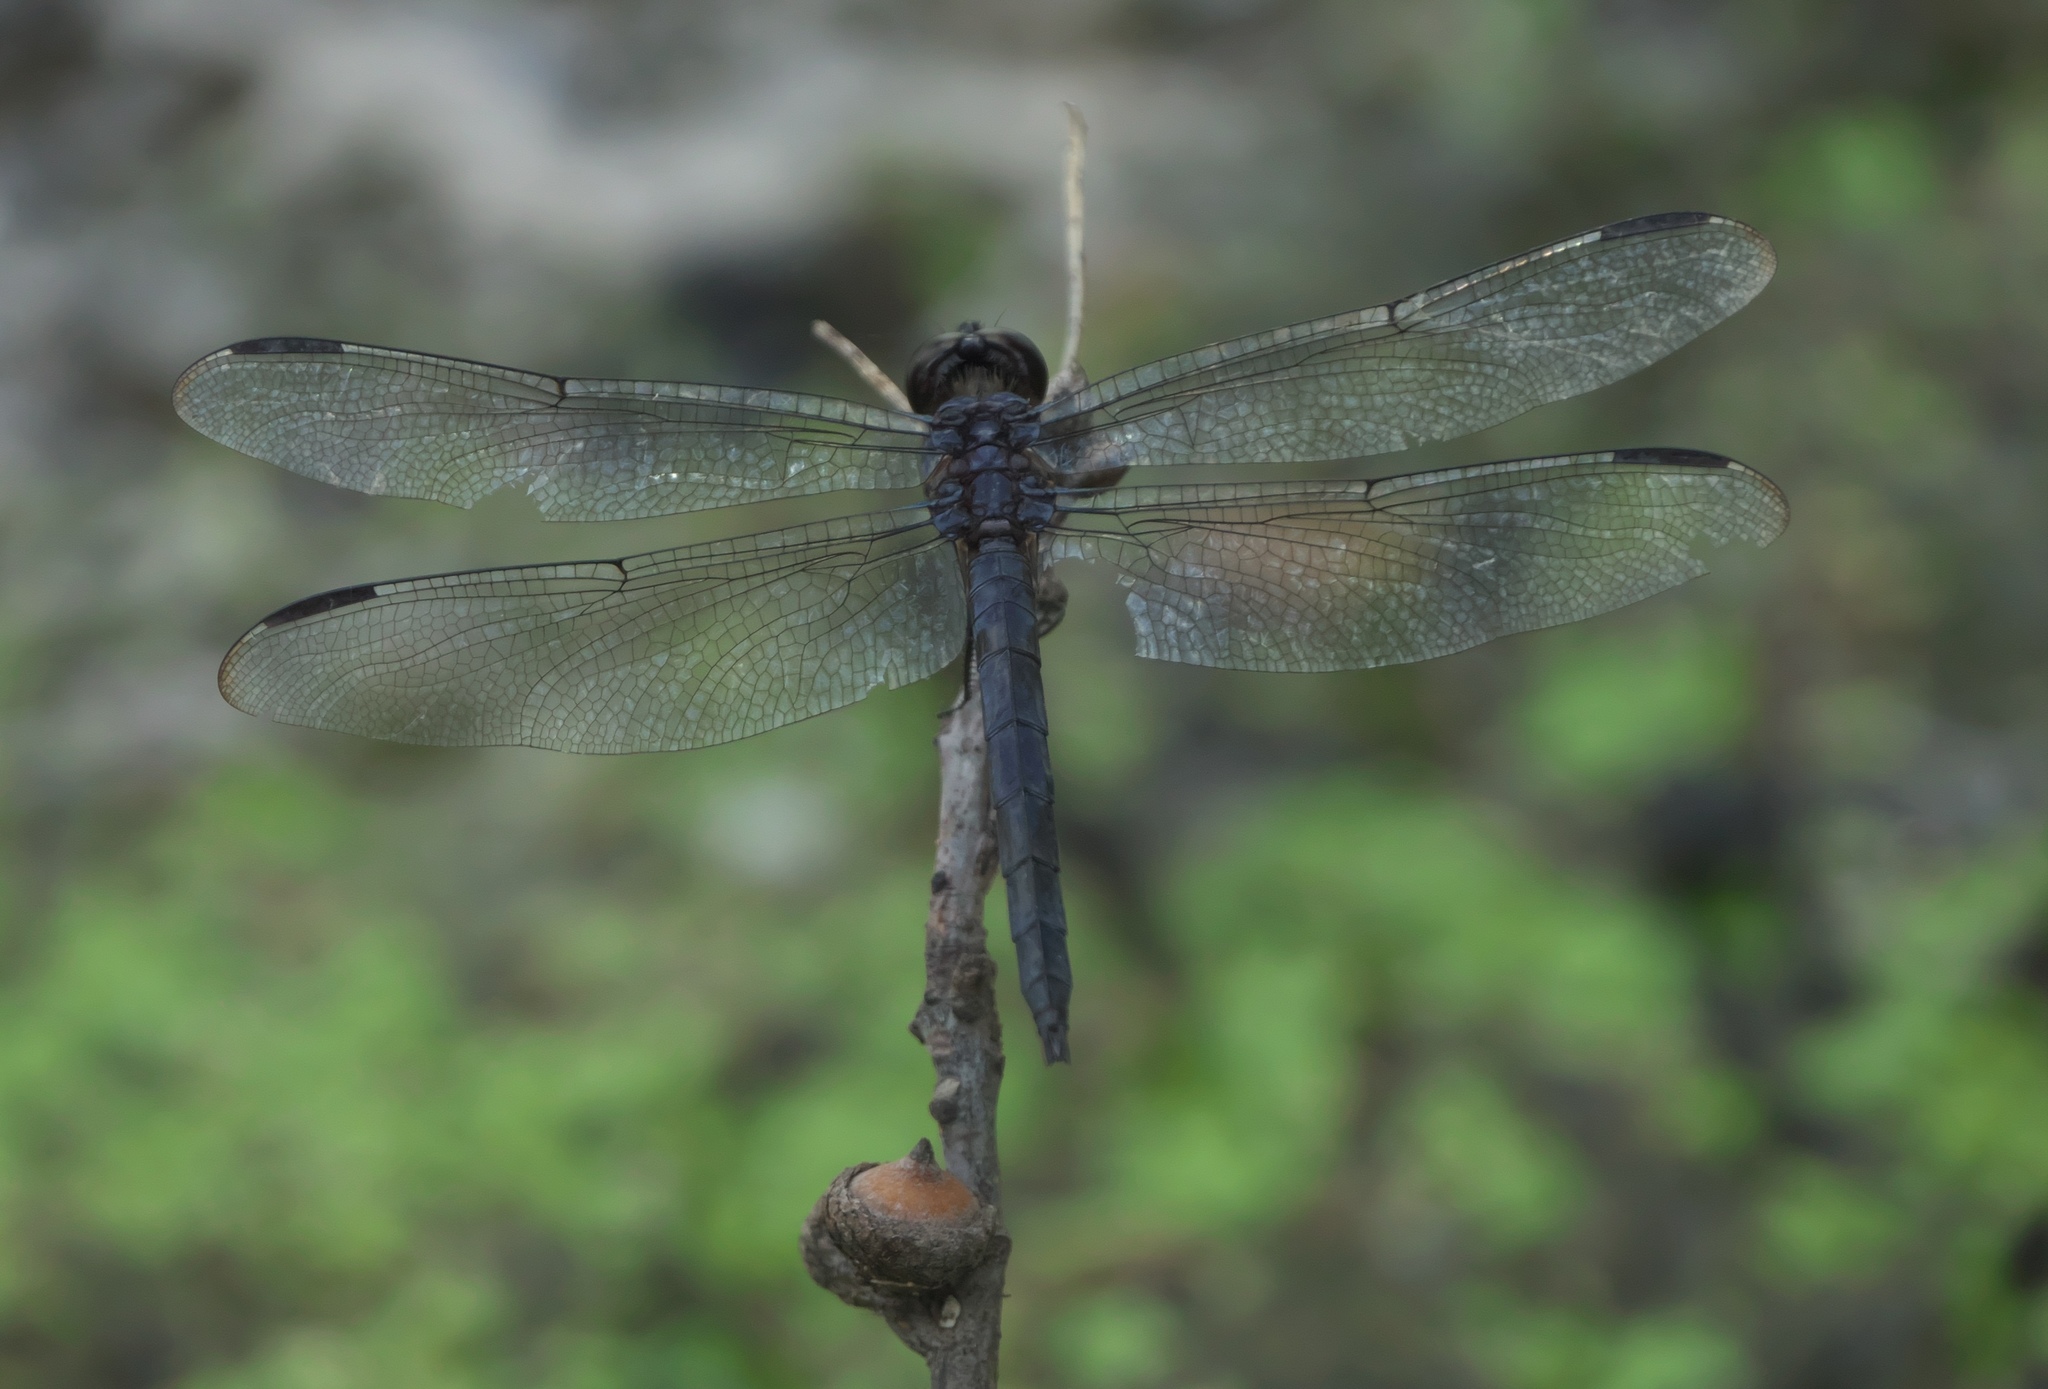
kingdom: Animalia
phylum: Arthropoda
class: Insecta
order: Odonata
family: Libellulidae
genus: Libellula
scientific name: Libellula incesta
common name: Slaty skimmer
